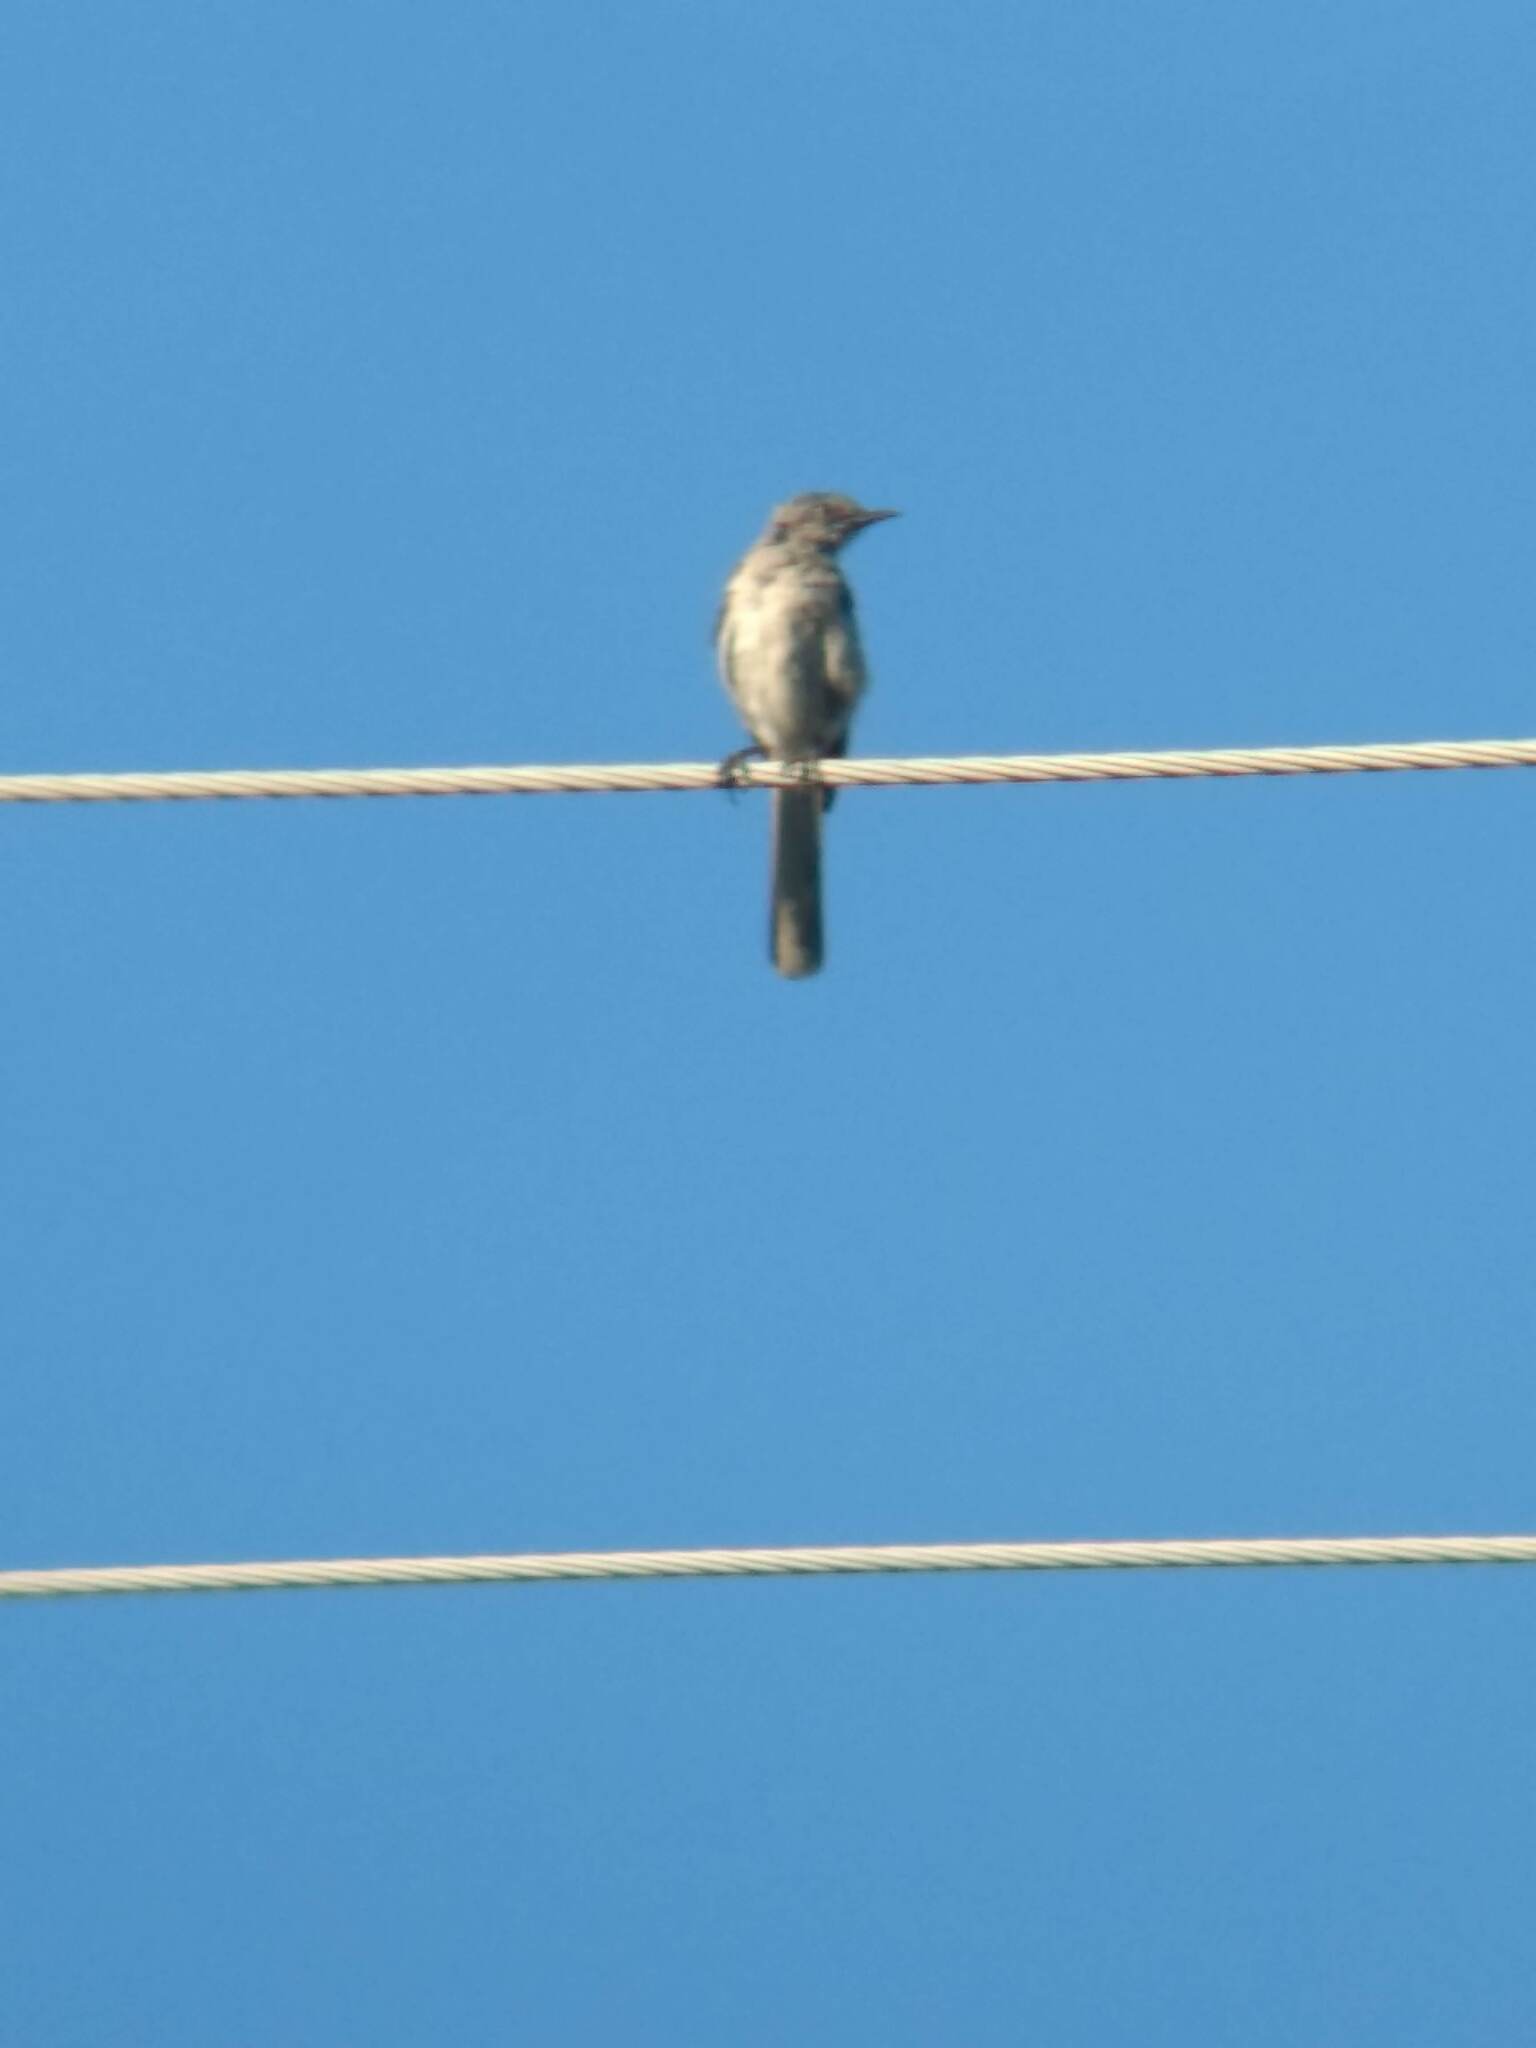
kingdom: Animalia
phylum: Chordata
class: Aves
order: Passeriformes
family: Mimidae
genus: Mimus
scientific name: Mimus polyglottos
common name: Northern mockingbird
